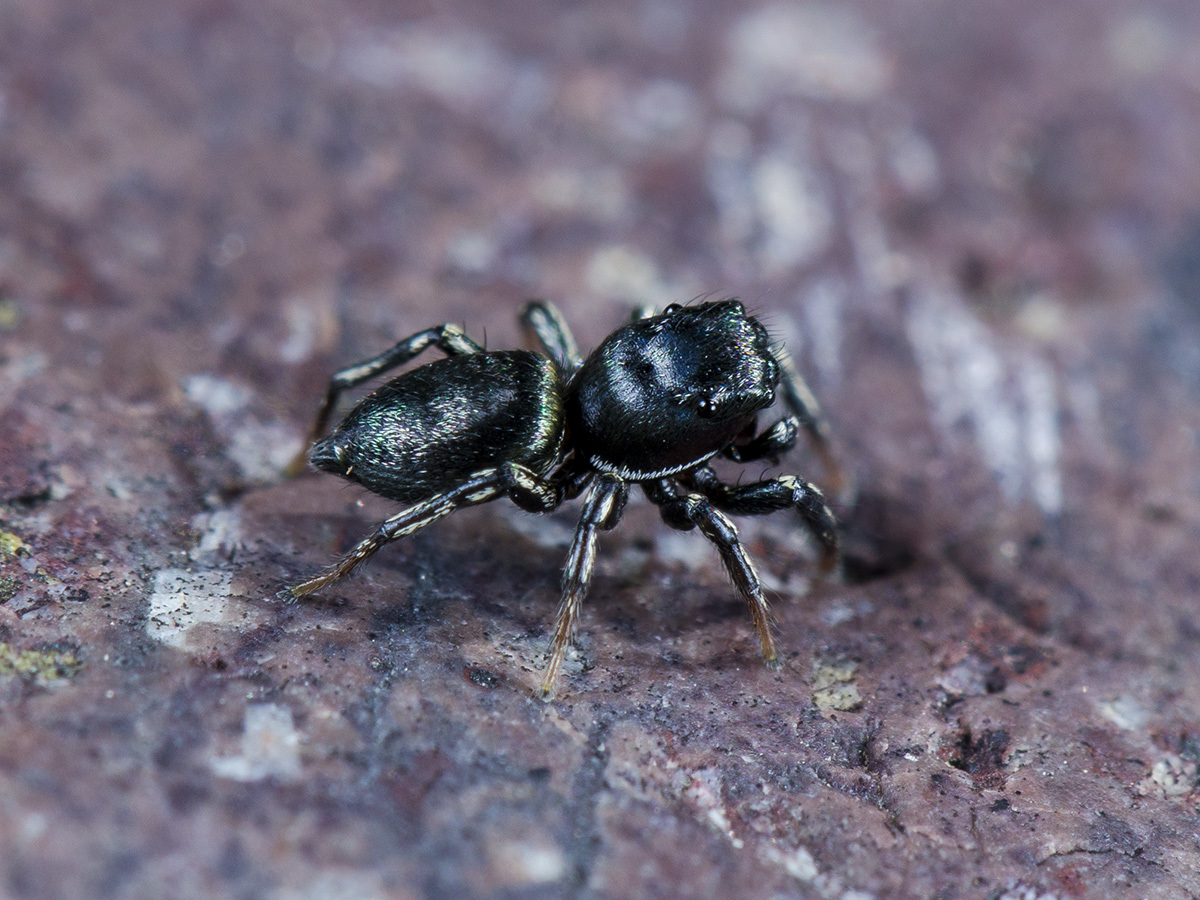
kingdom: Animalia
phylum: Arthropoda
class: Arachnida
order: Araneae
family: Salticidae
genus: Heliophanus
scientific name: Heliophanus potanini
